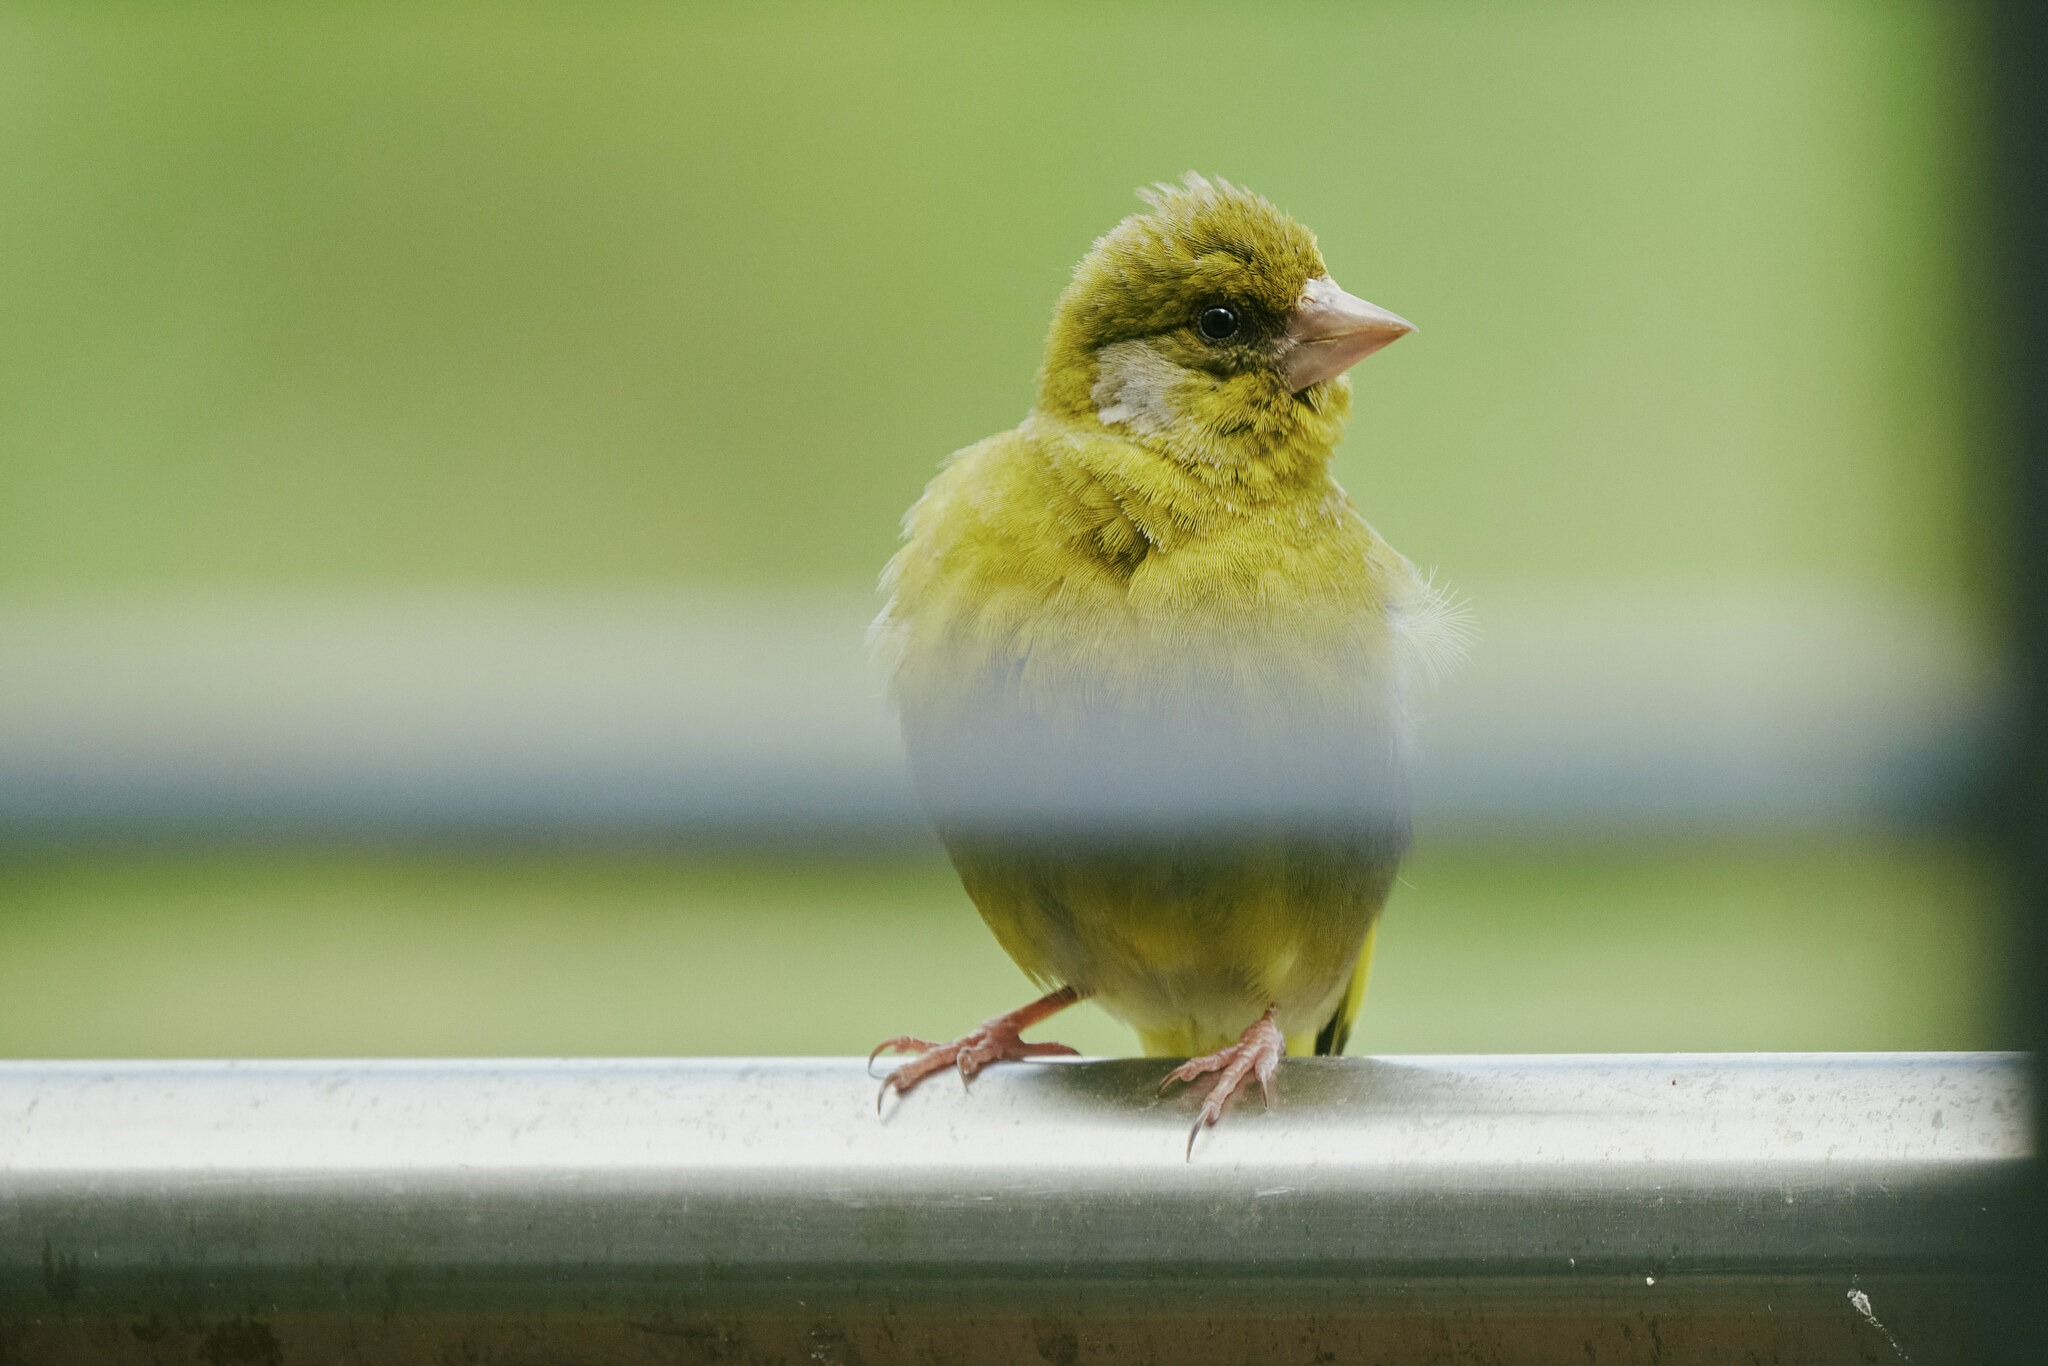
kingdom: Plantae
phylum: Tracheophyta
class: Liliopsida
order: Poales
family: Poaceae
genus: Chloris
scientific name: Chloris chloris
